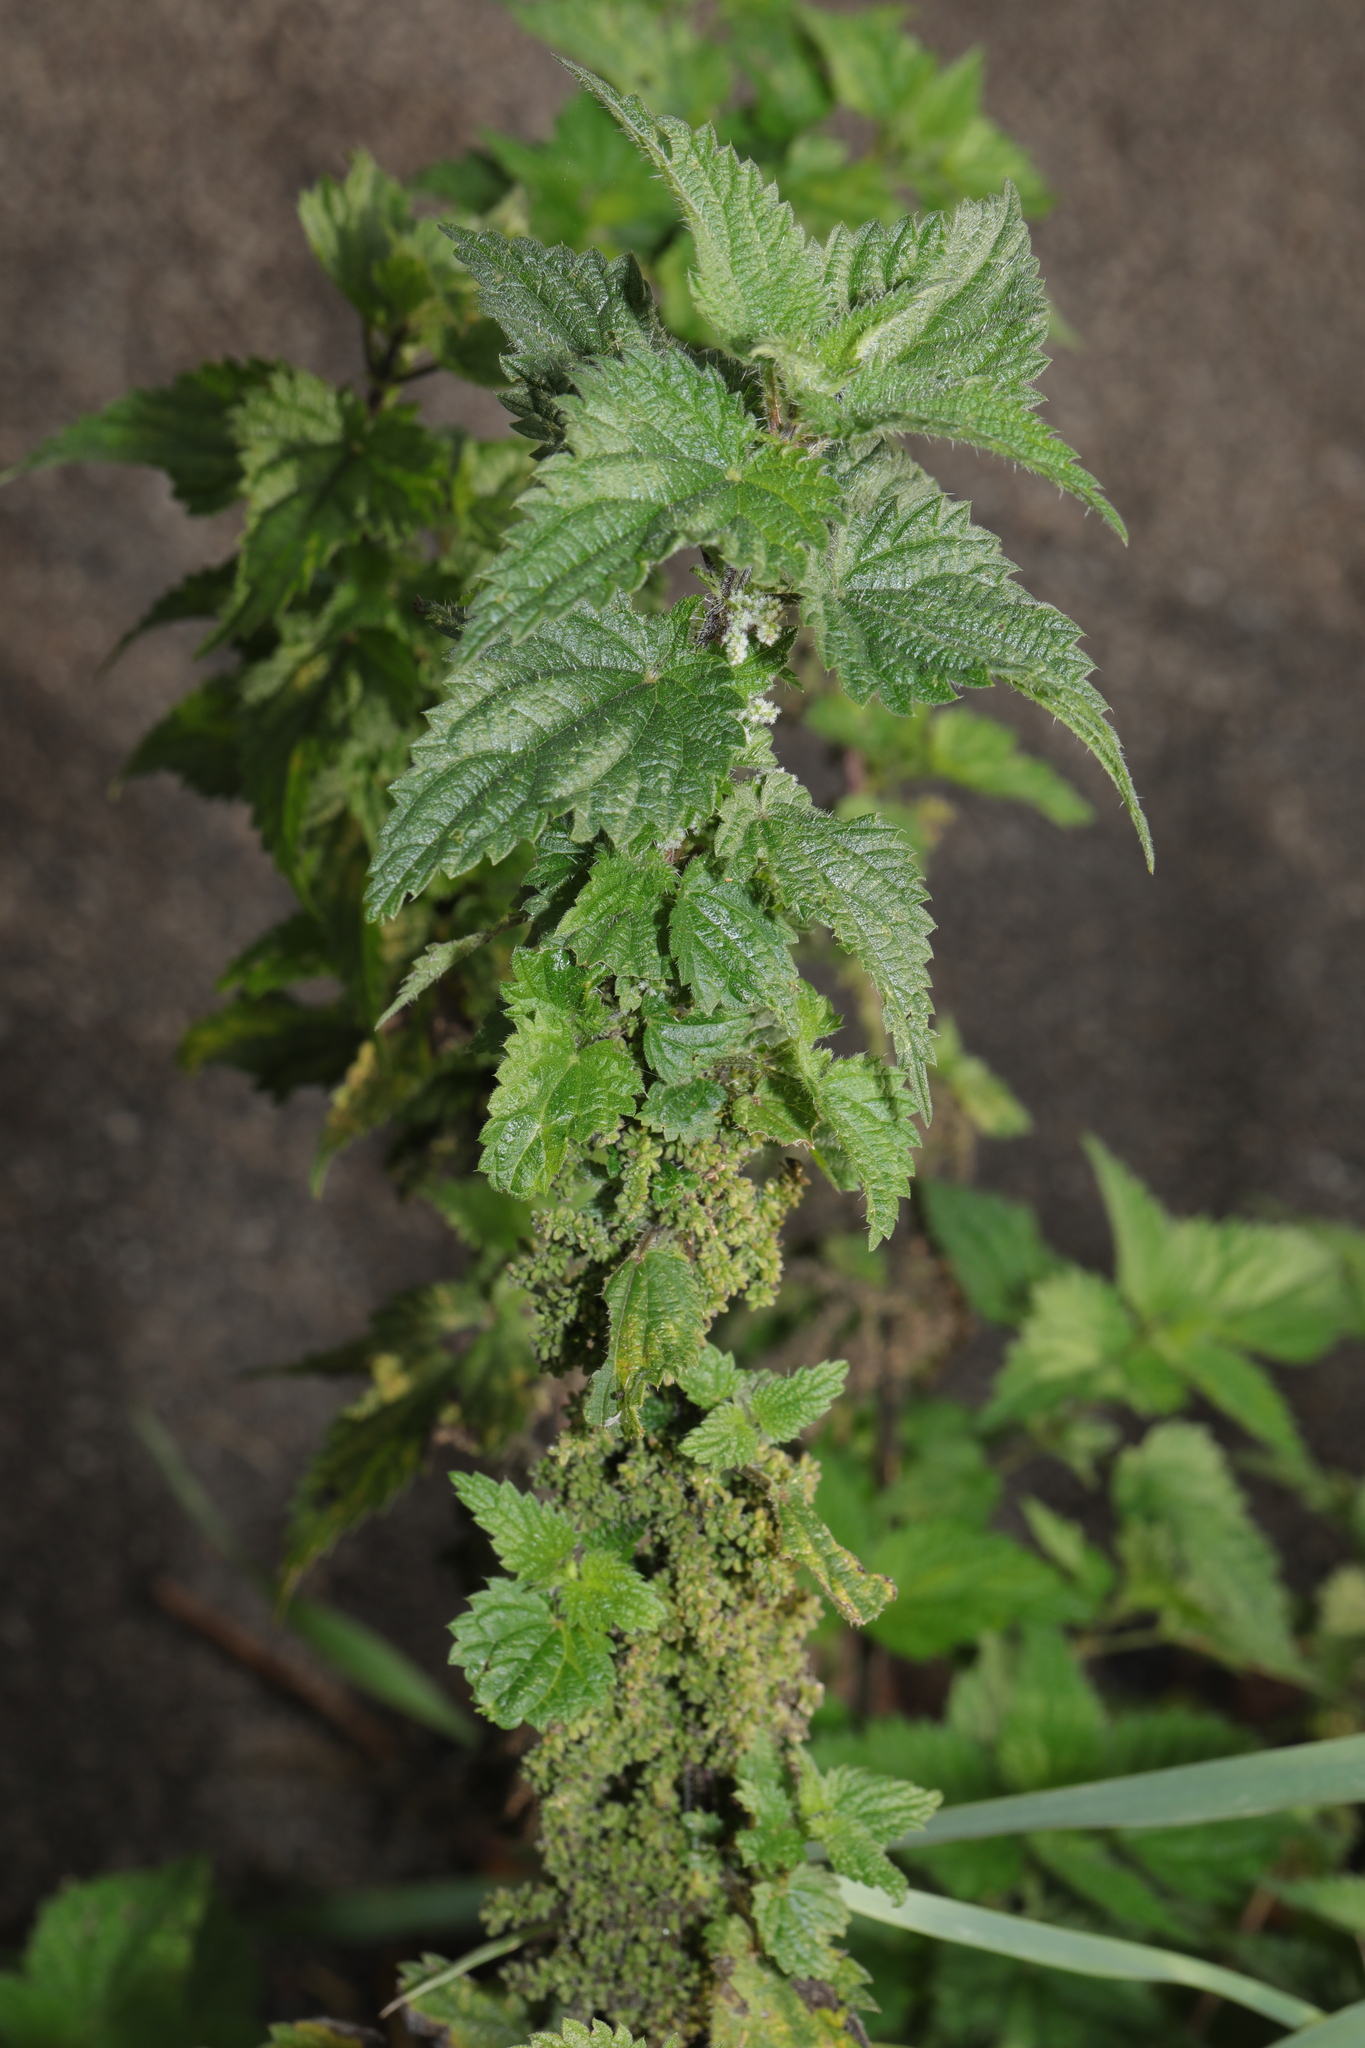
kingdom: Plantae
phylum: Tracheophyta
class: Magnoliopsida
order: Rosales
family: Urticaceae
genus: Urtica
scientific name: Urtica dioica
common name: Common nettle
